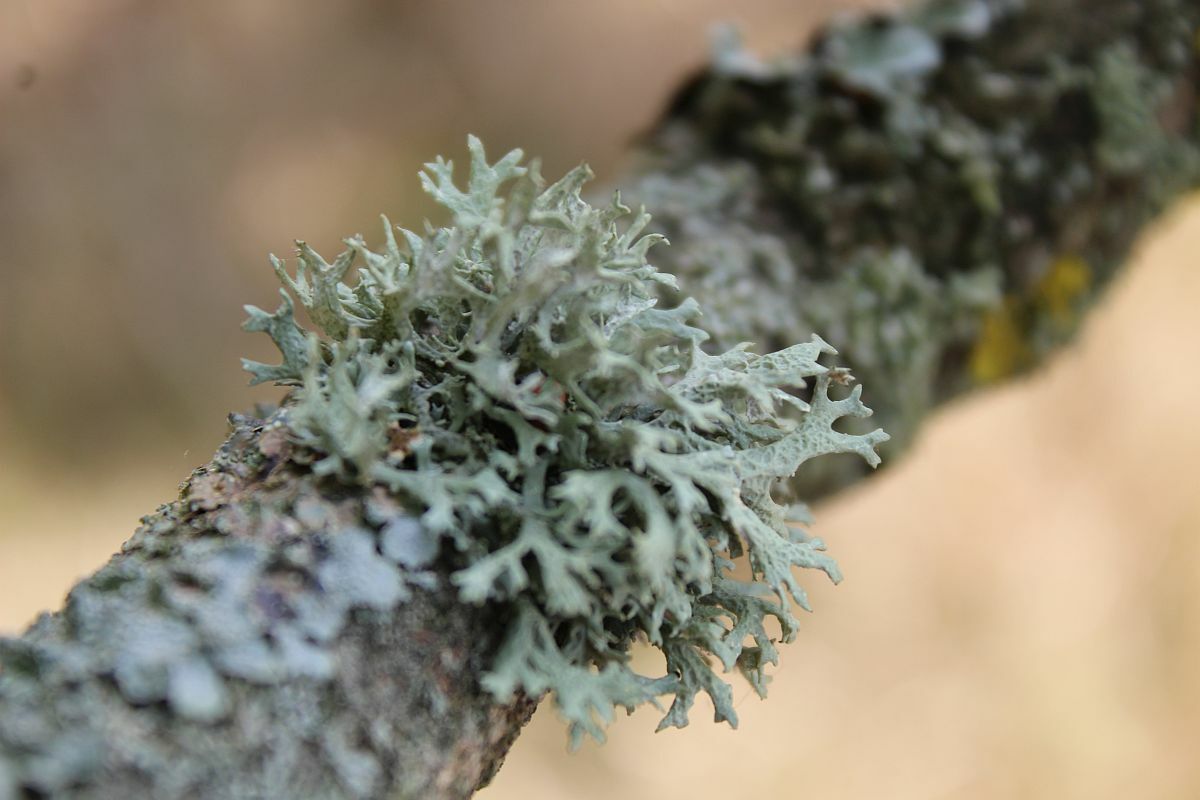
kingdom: Fungi
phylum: Ascomycota
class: Lecanoromycetes
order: Lecanorales
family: Parmeliaceae
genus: Evernia
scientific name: Evernia prunastri
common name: Oak moss
